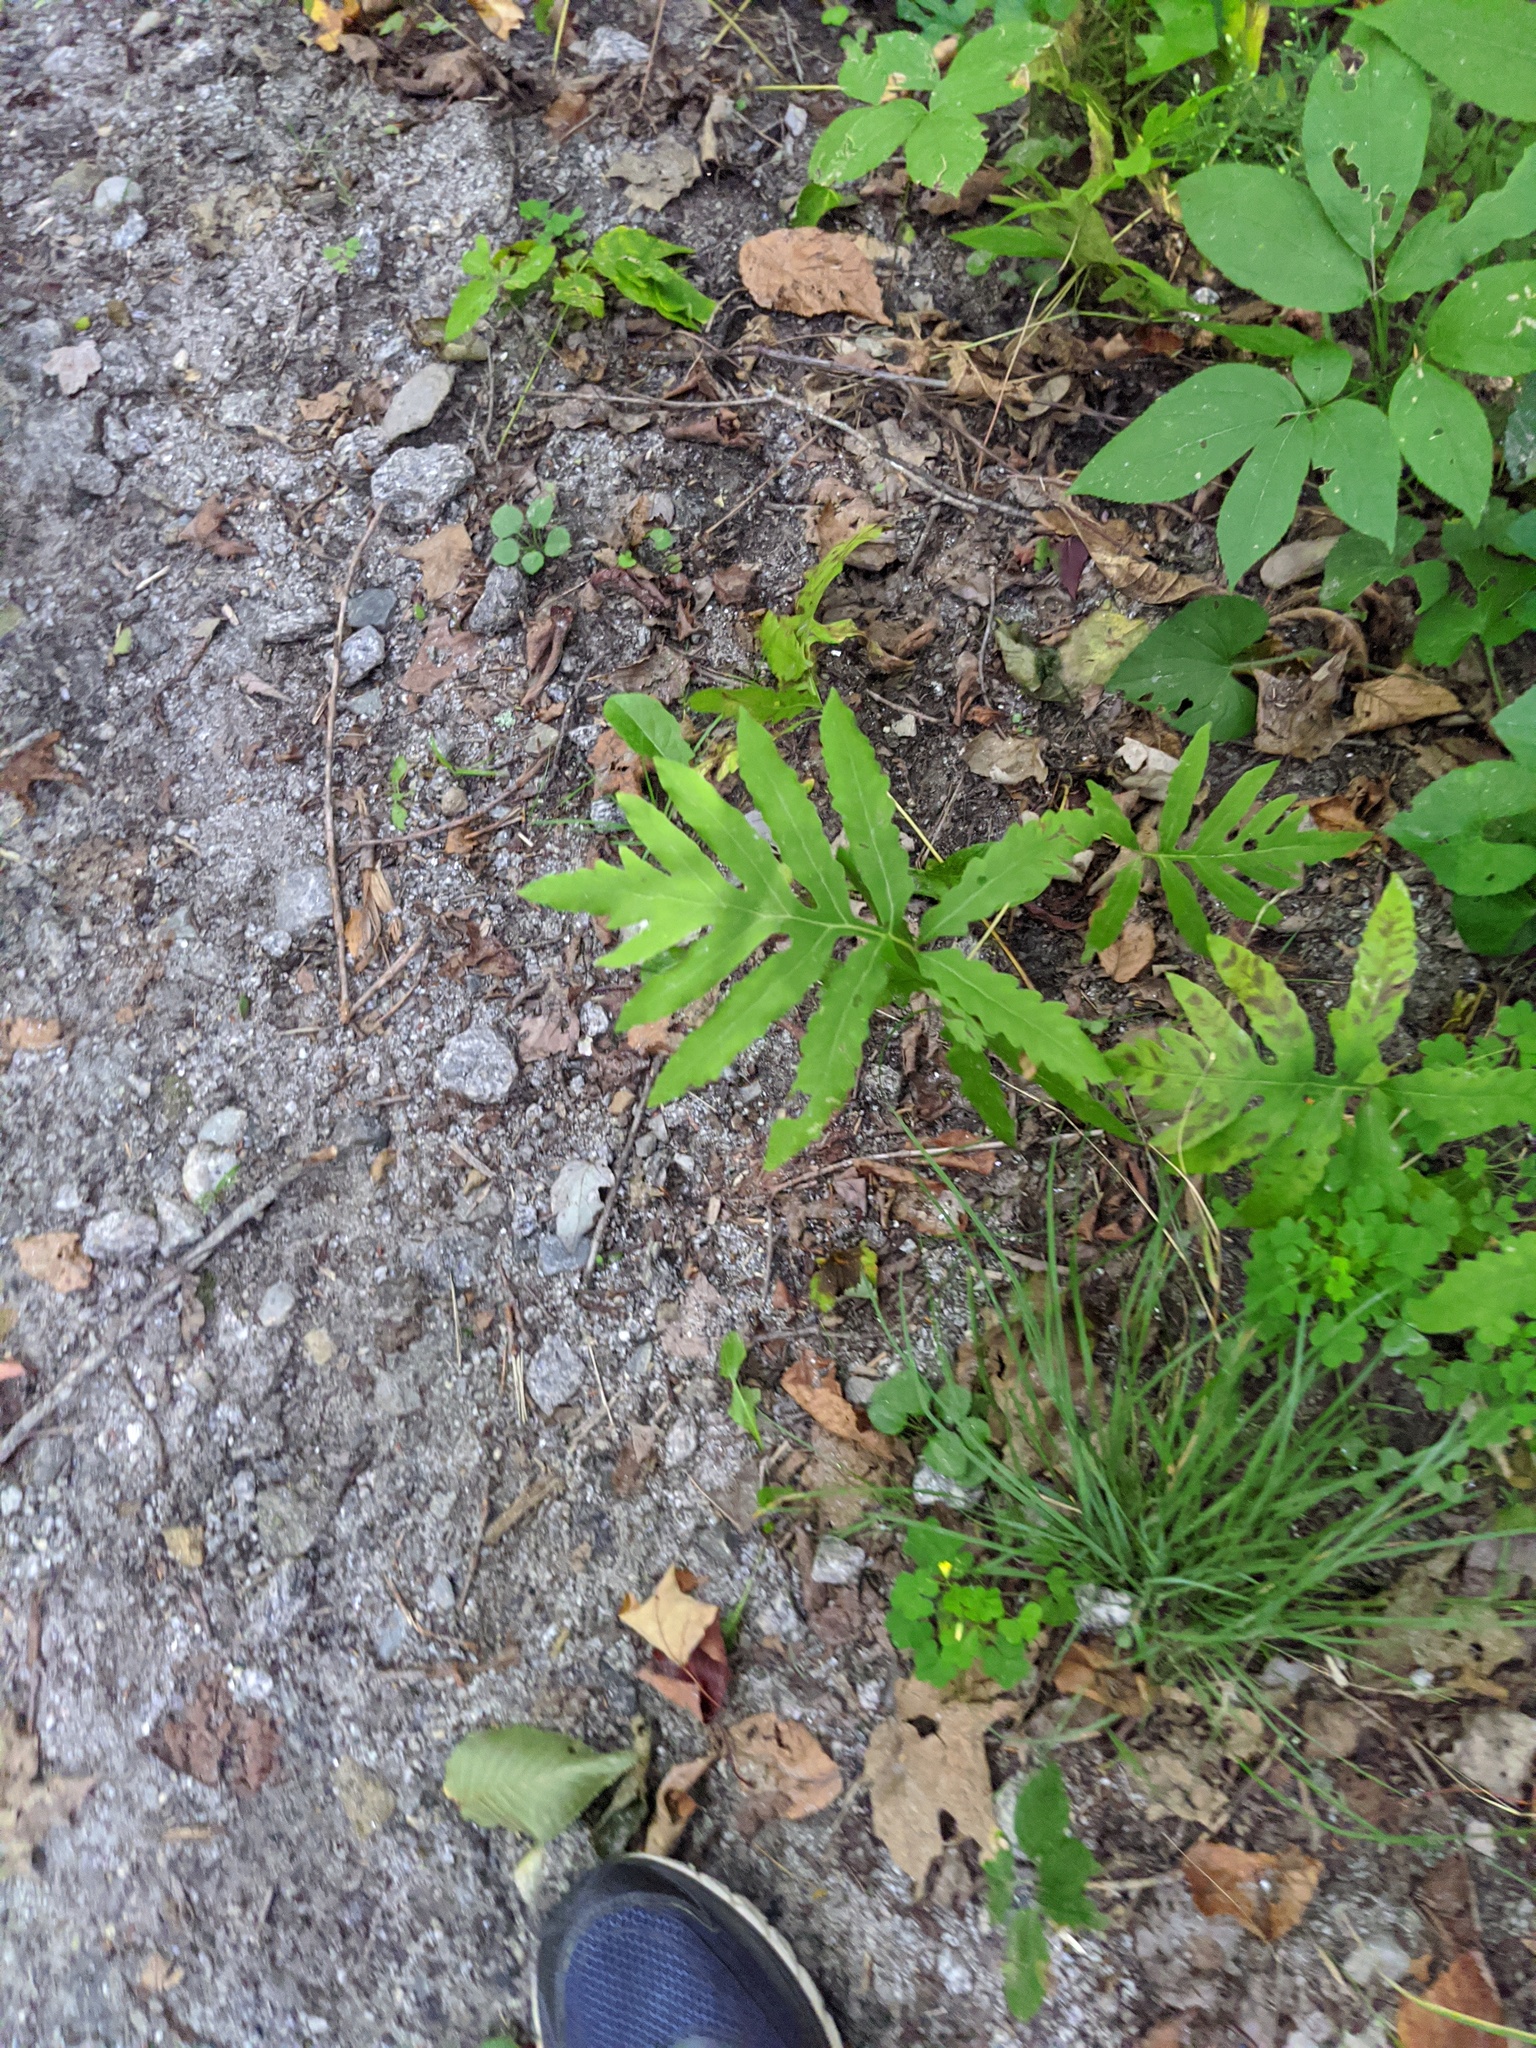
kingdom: Plantae
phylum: Tracheophyta
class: Magnoliopsida
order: Apiales
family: Araliaceae
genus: Aralia
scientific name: Aralia nudicaulis
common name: Wild sarsaparilla
